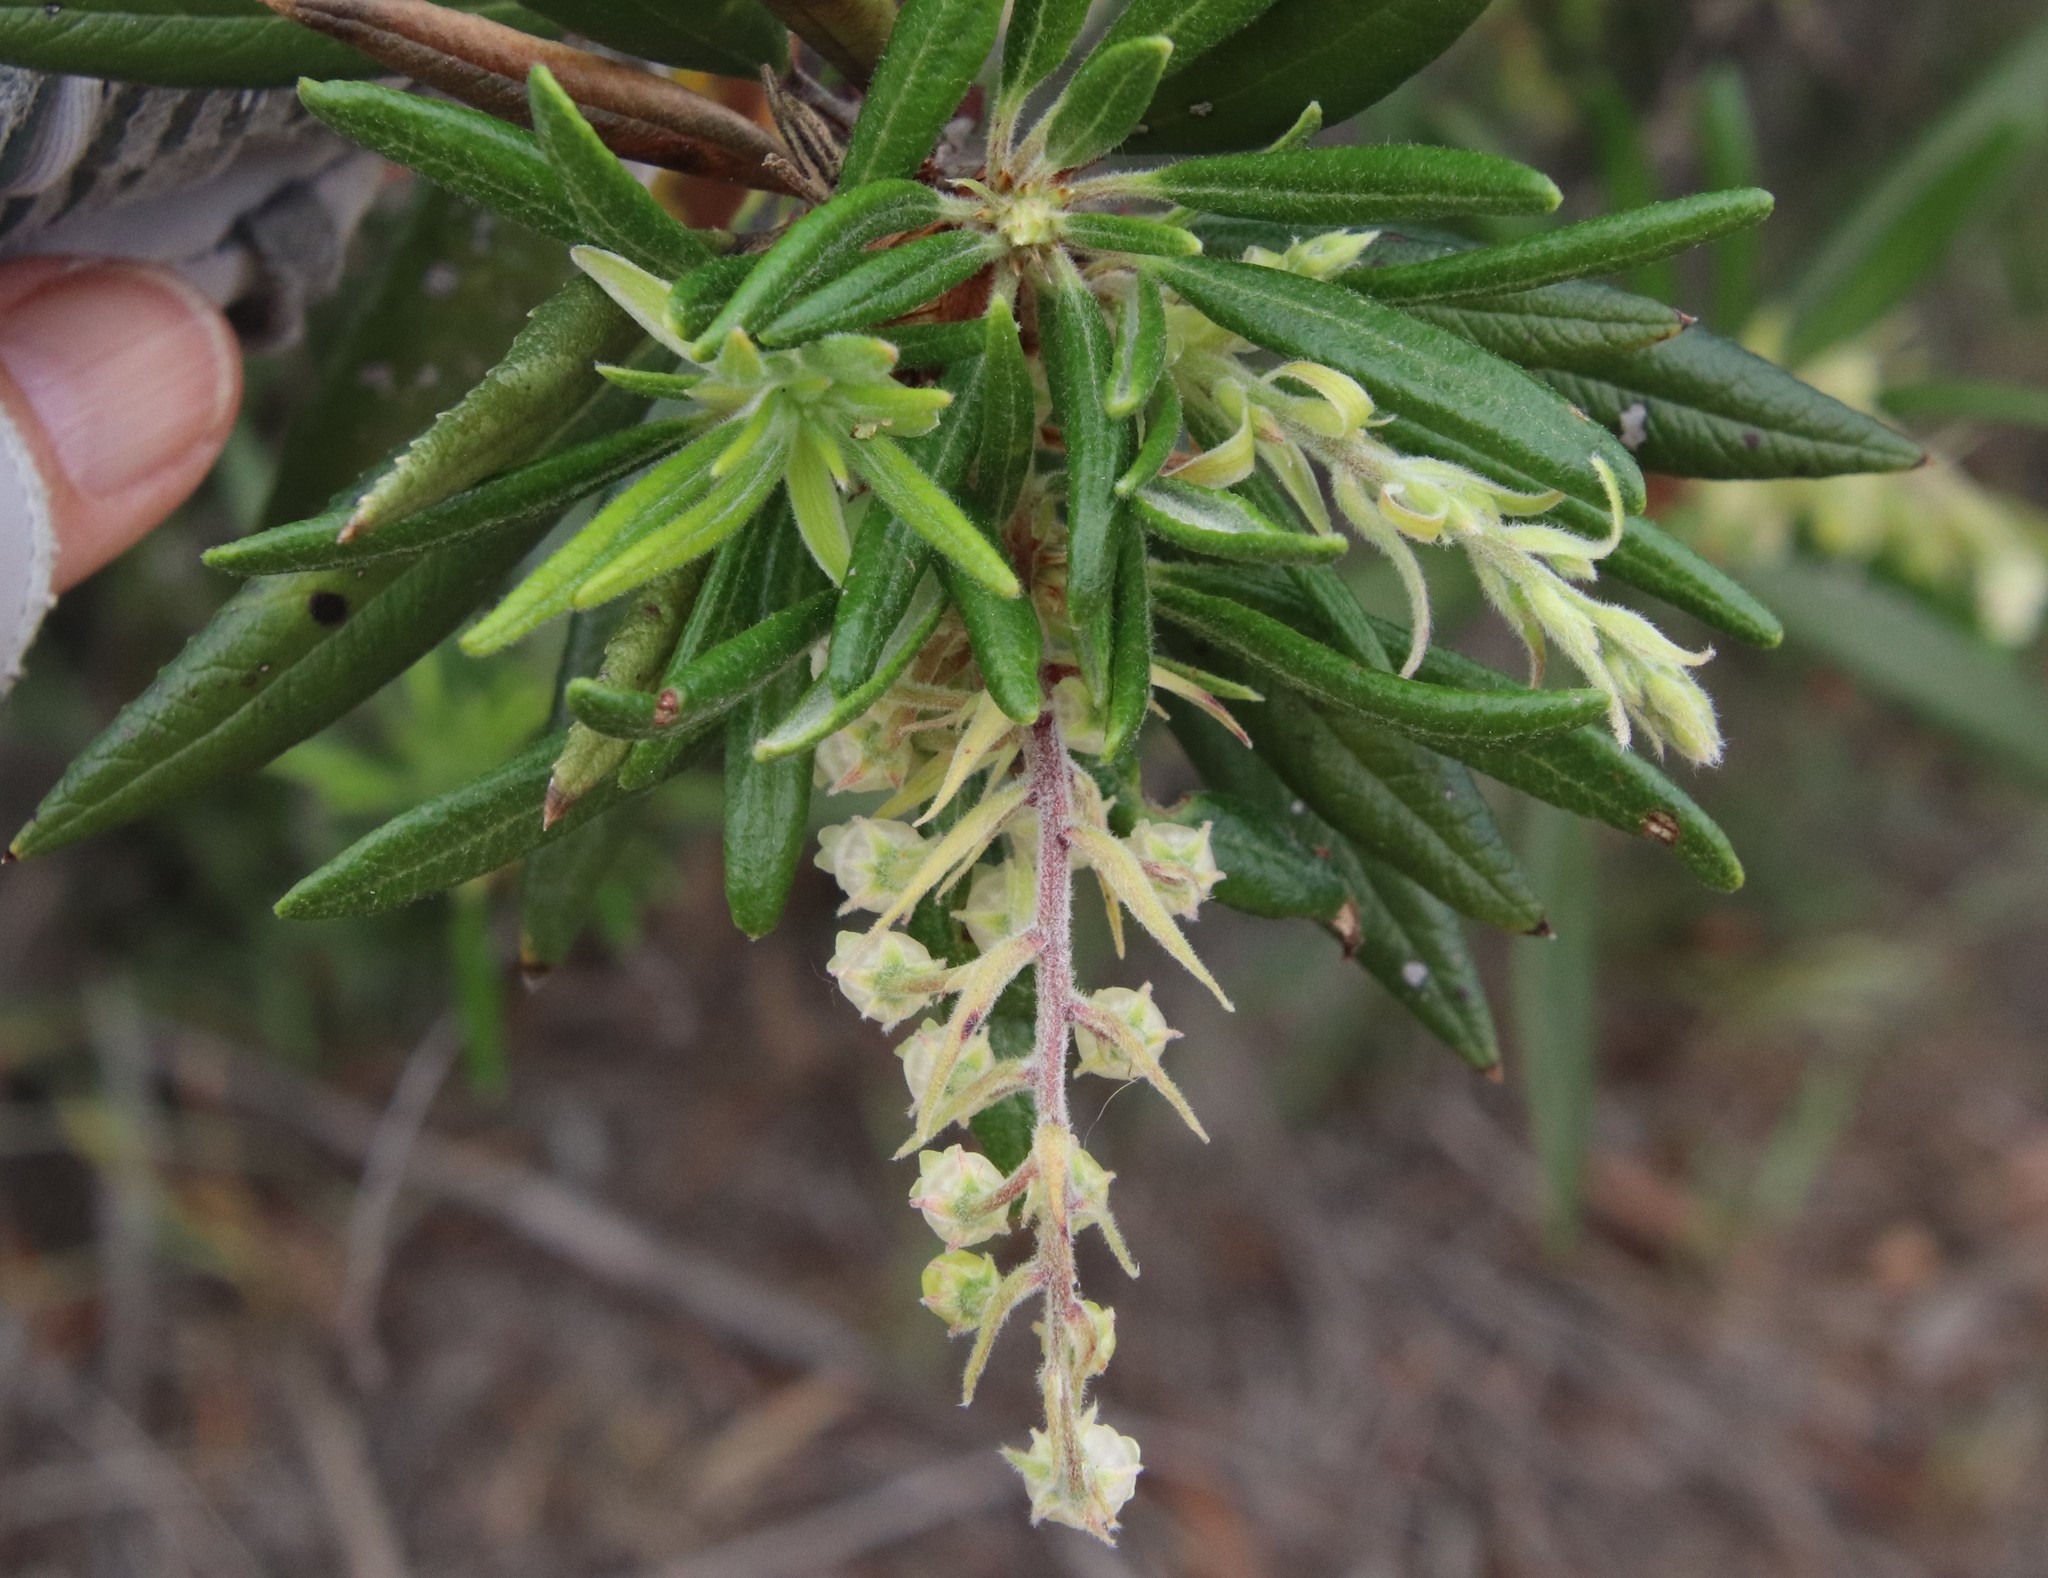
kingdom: Plantae
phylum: Tracheophyta
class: Magnoliopsida
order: Ericales
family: Ericaceae
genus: Comarostaphylis
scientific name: Comarostaphylis diversifolia
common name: Summer-holly
